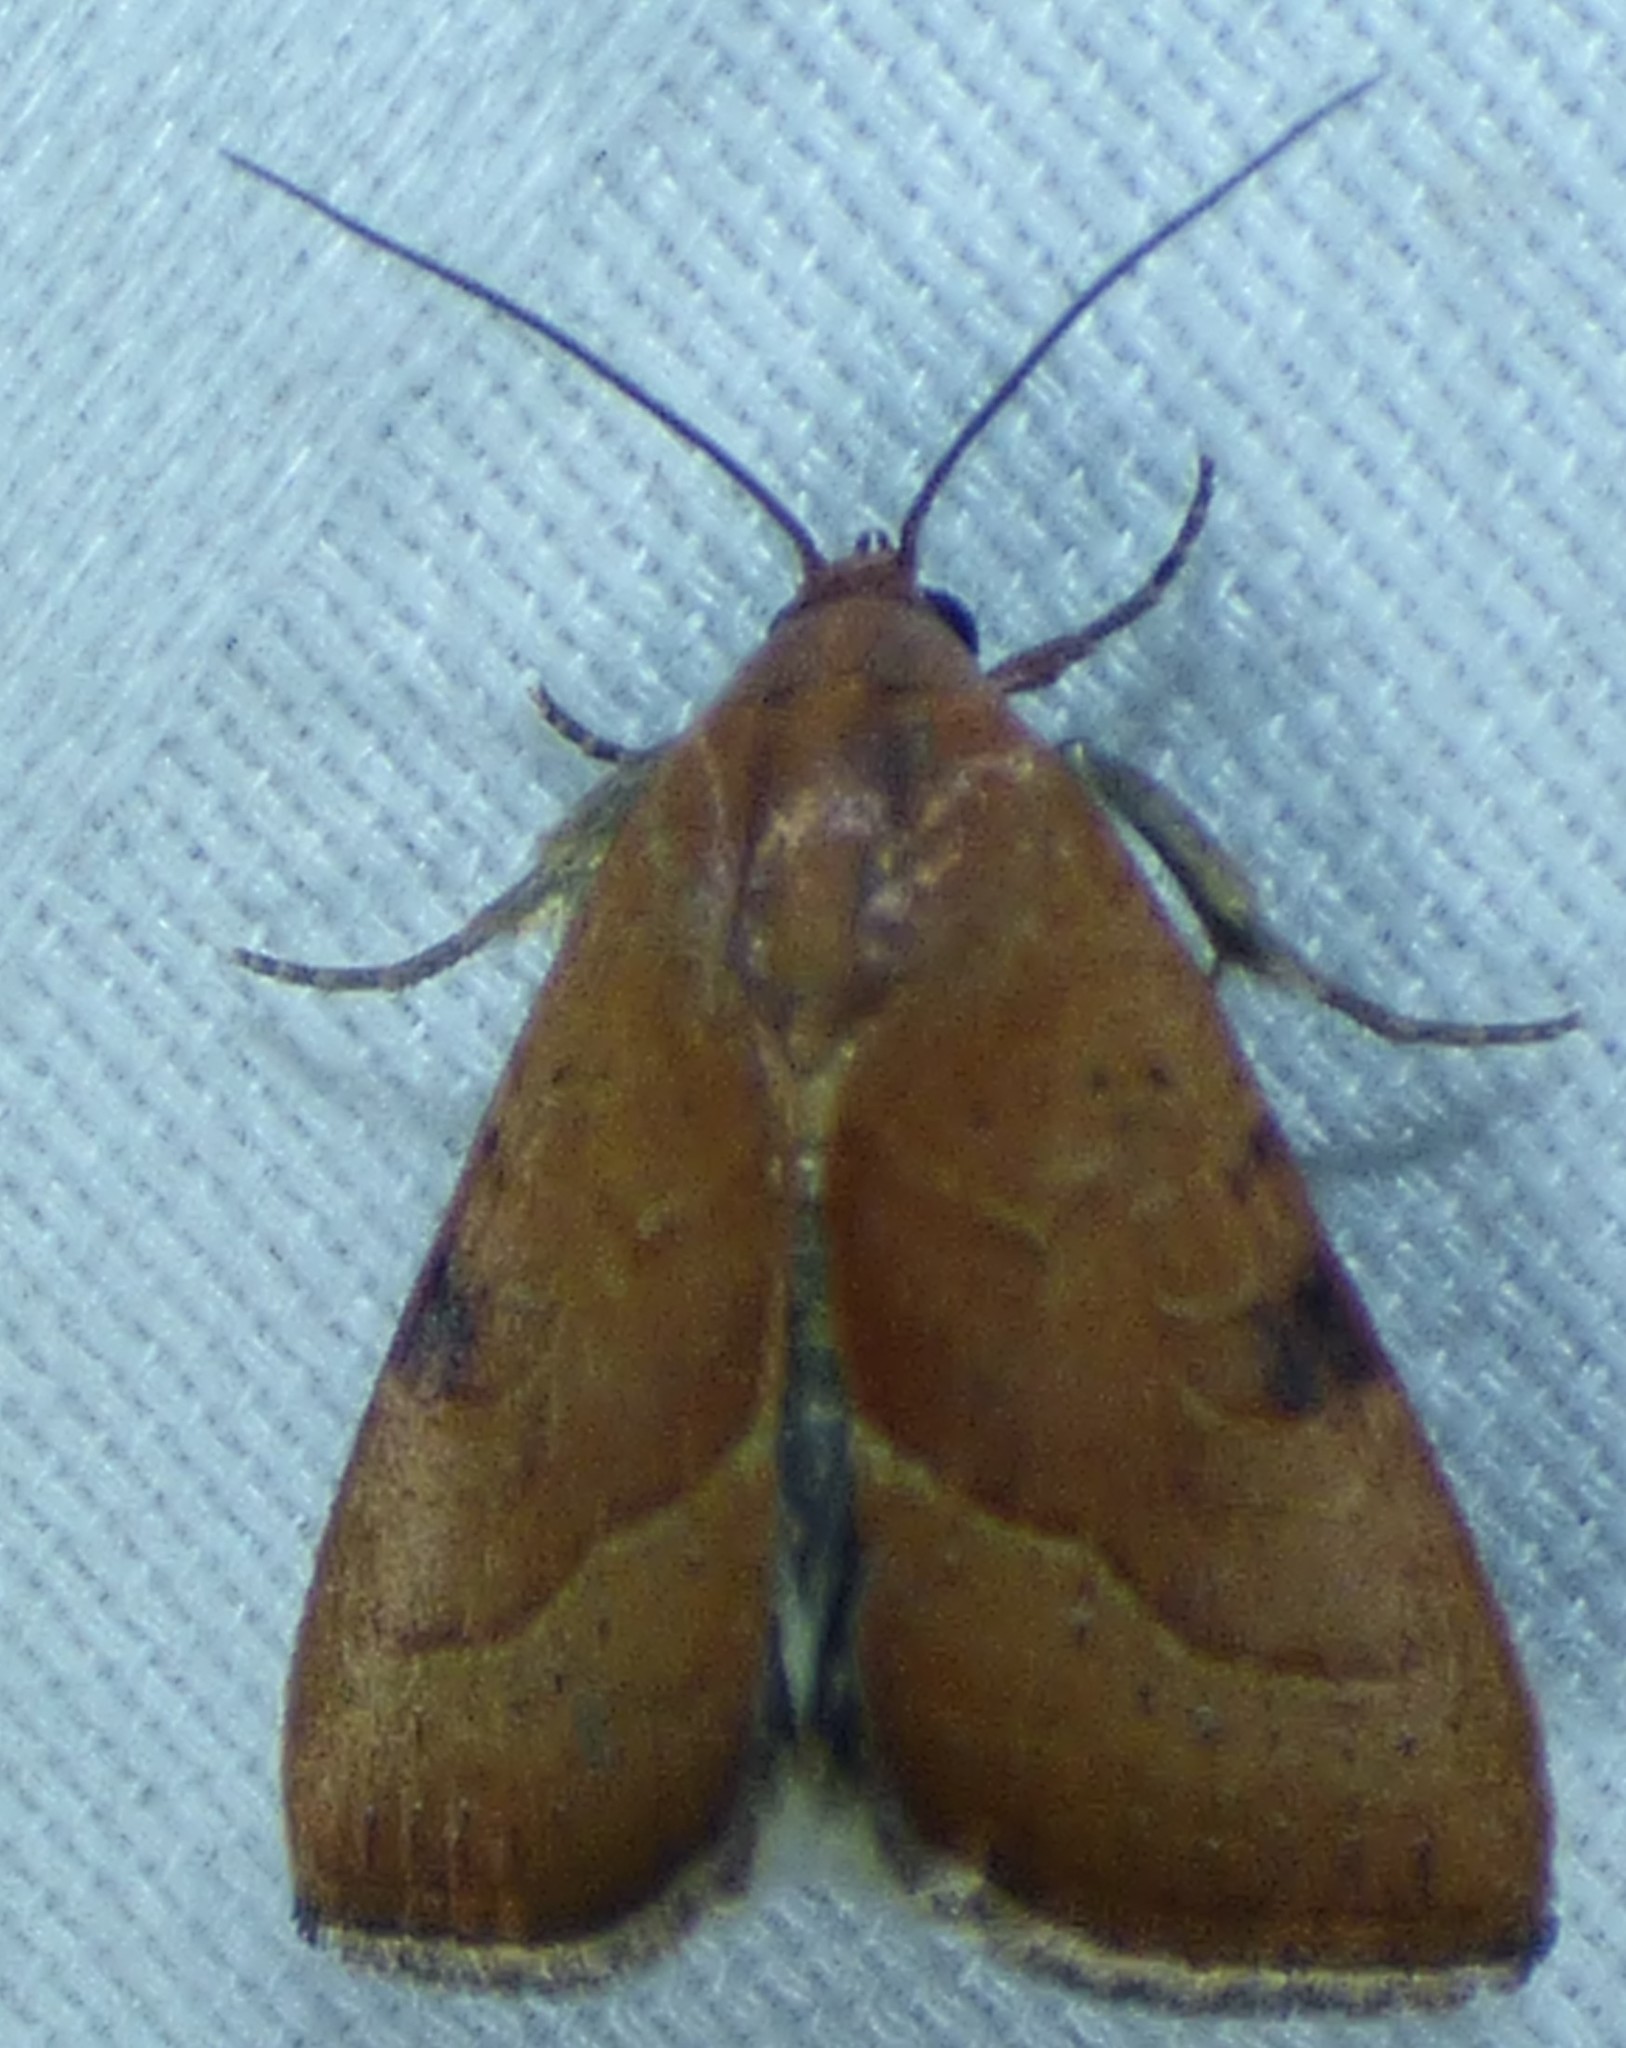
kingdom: Animalia
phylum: Arthropoda
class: Insecta
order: Lepidoptera
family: Noctuidae
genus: Galgula
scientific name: Galgula partita
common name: Wedgeling
